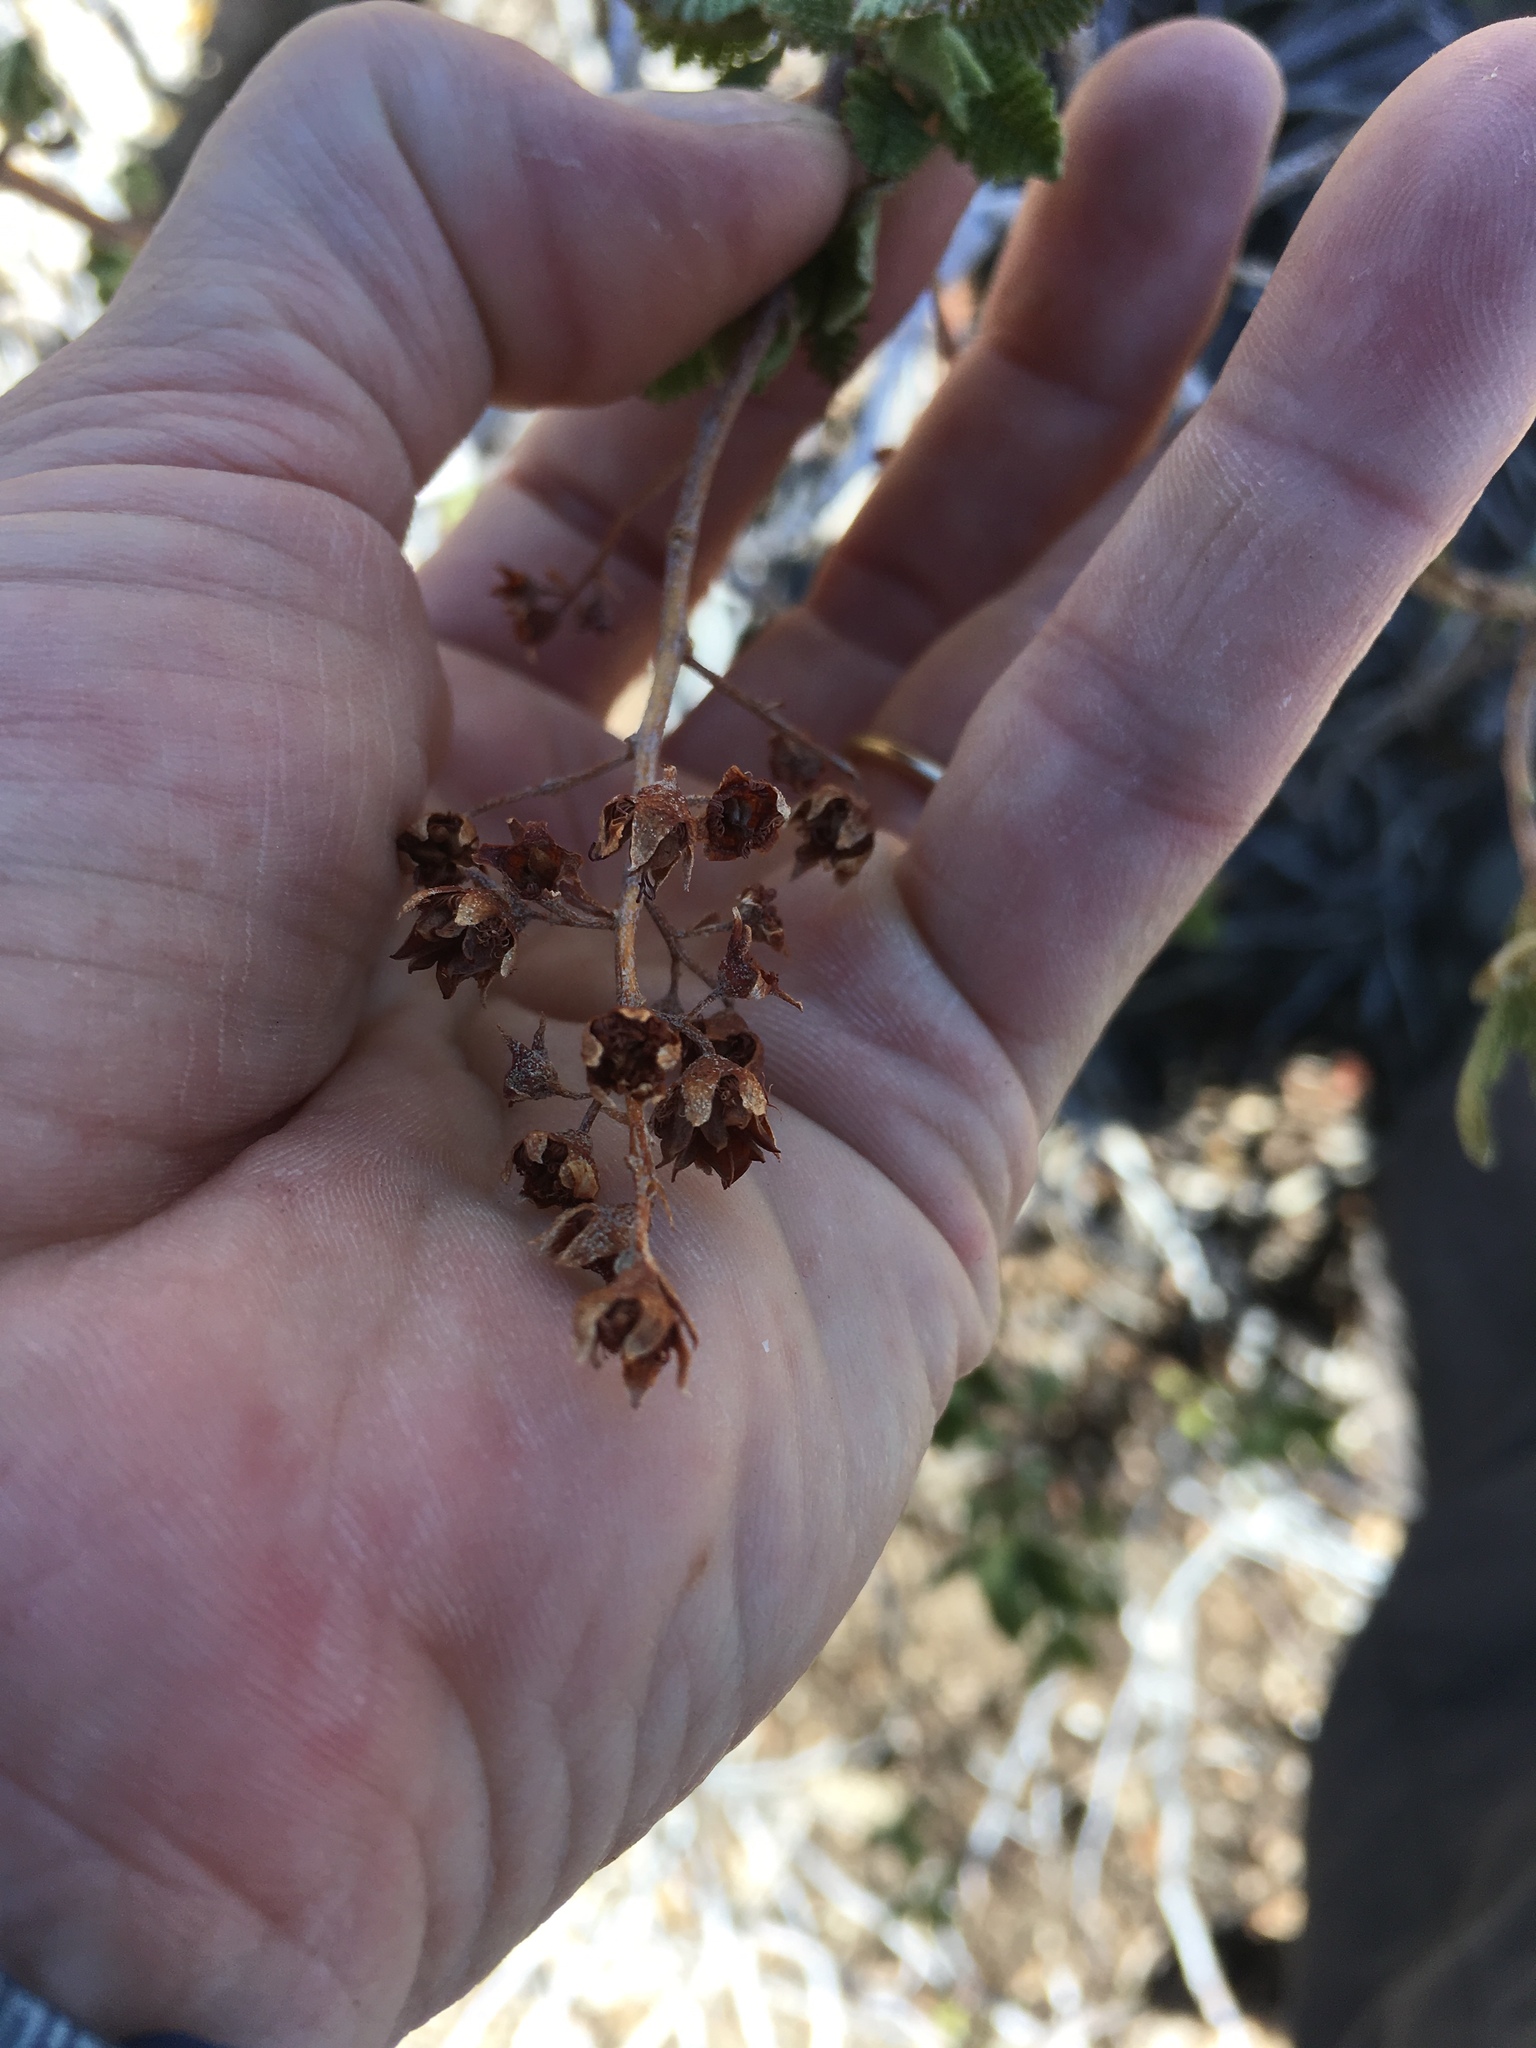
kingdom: Plantae
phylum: Tracheophyta
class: Magnoliopsida
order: Rosales
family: Rosaceae
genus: Chamaebatiaria
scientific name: Chamaebatiaria millefolium
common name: Fernbush
